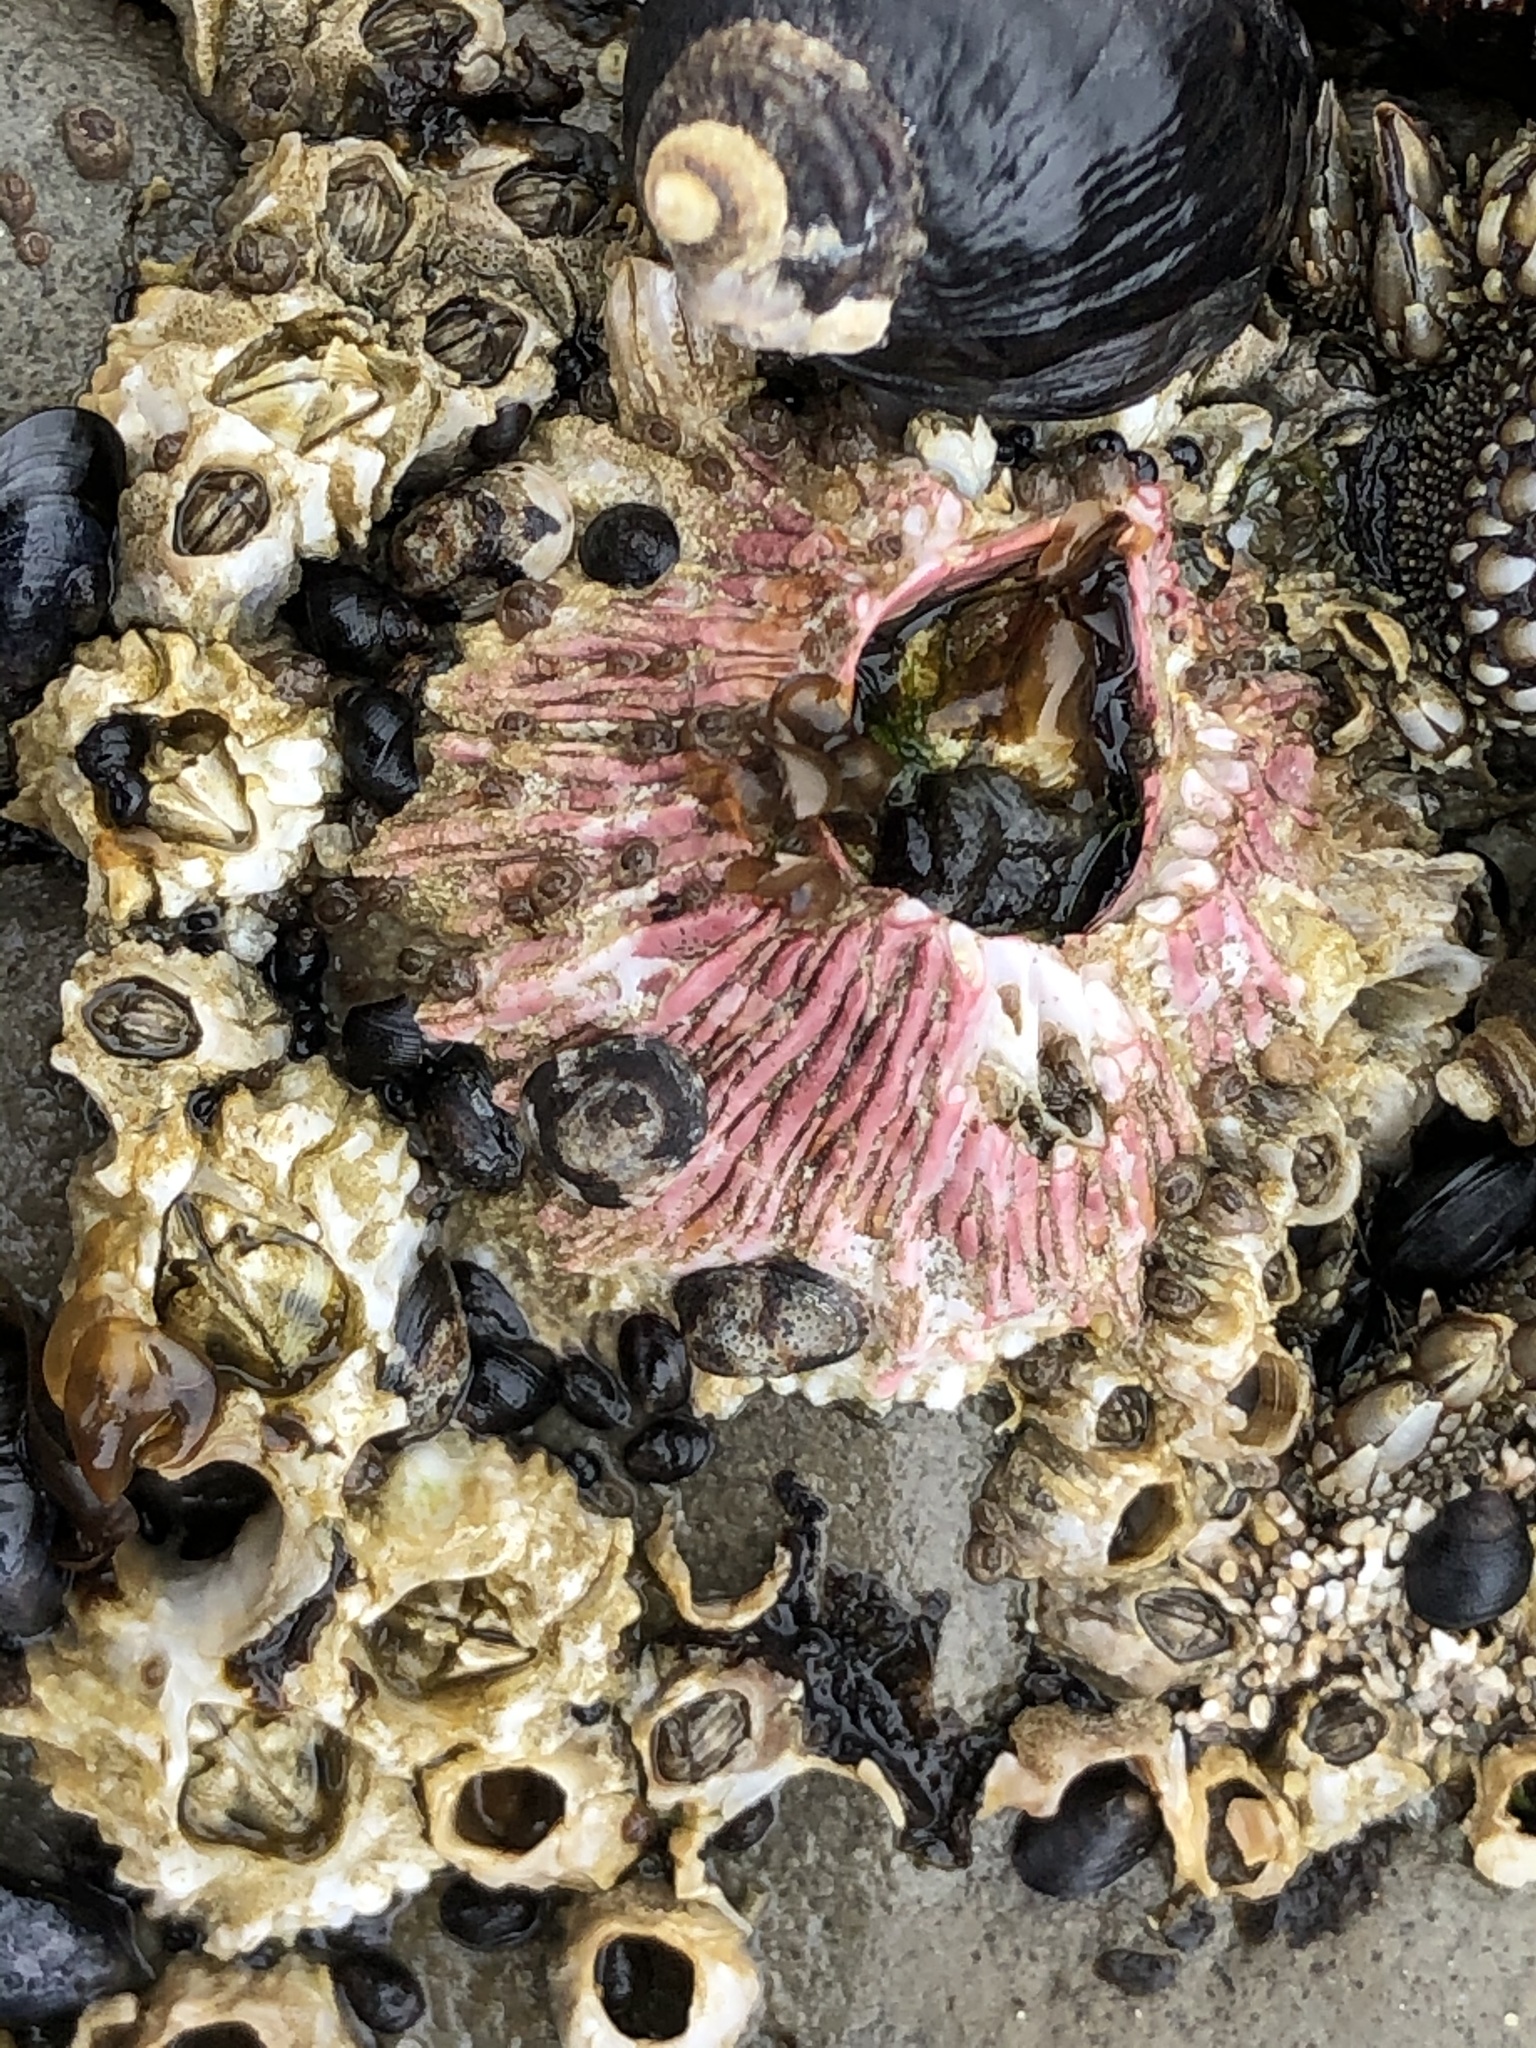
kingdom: Animalia
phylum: Arthropoda
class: Maxillopoda
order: Sessilia
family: Tetraclitidae
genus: Tetraclita
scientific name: Tetraclita rubescens
